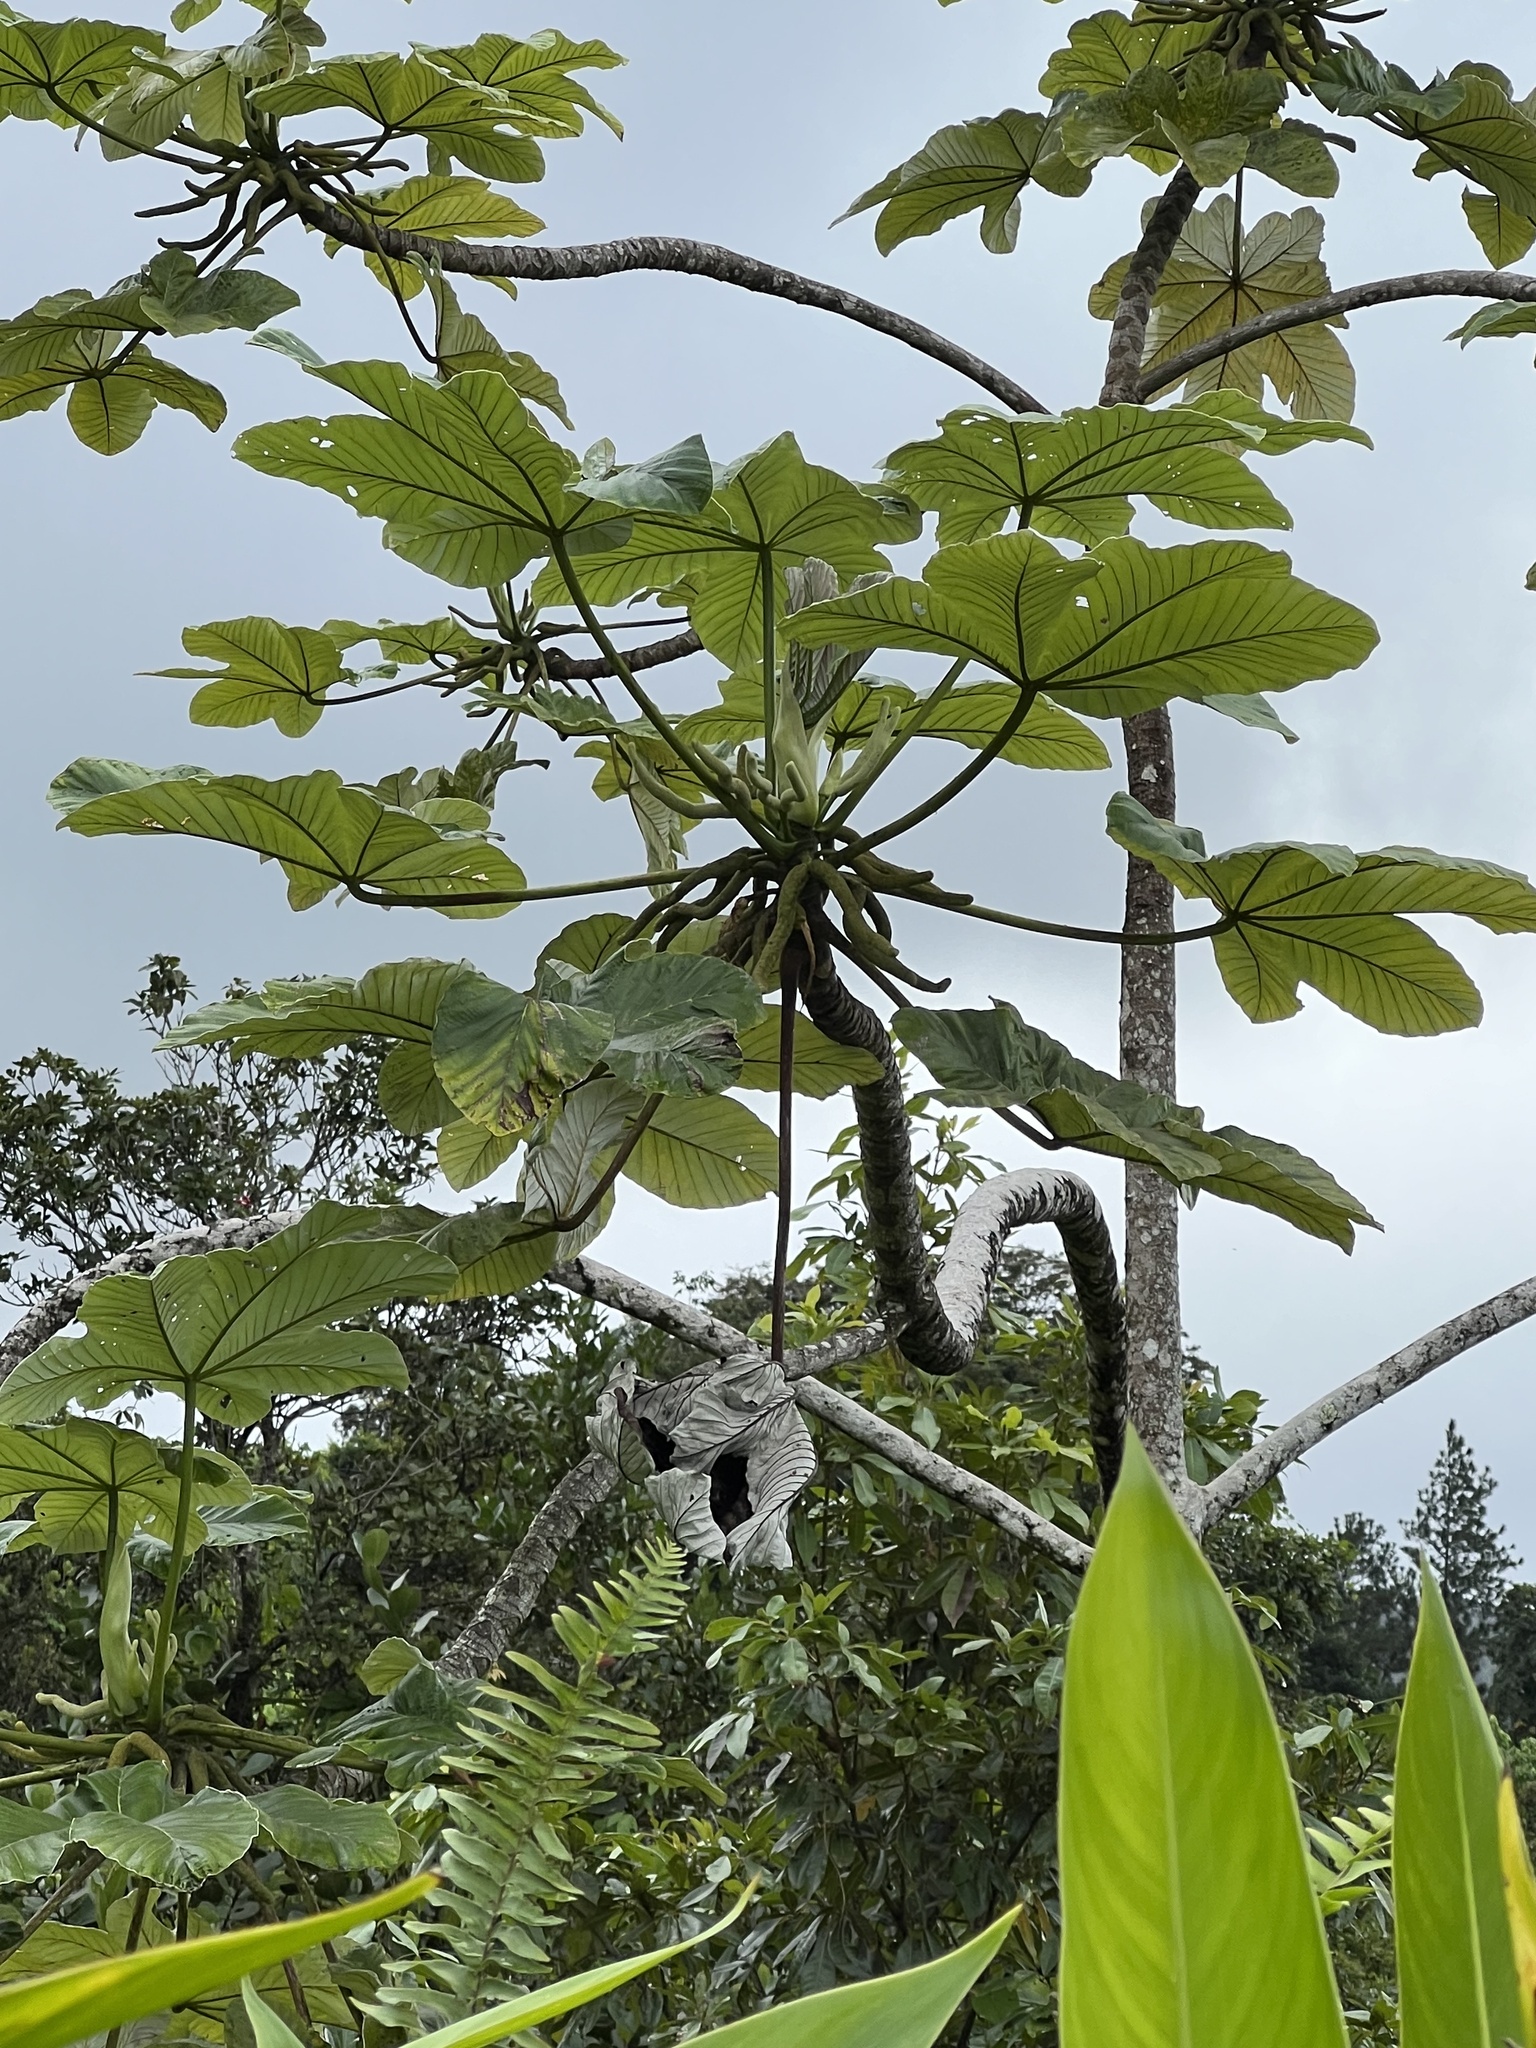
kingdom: Plantae
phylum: Tracheophyta
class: Magnoliopsida
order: Rosales
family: Urticaceae
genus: Cecropia
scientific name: Cecropia schreberiana
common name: Trumpet tree
